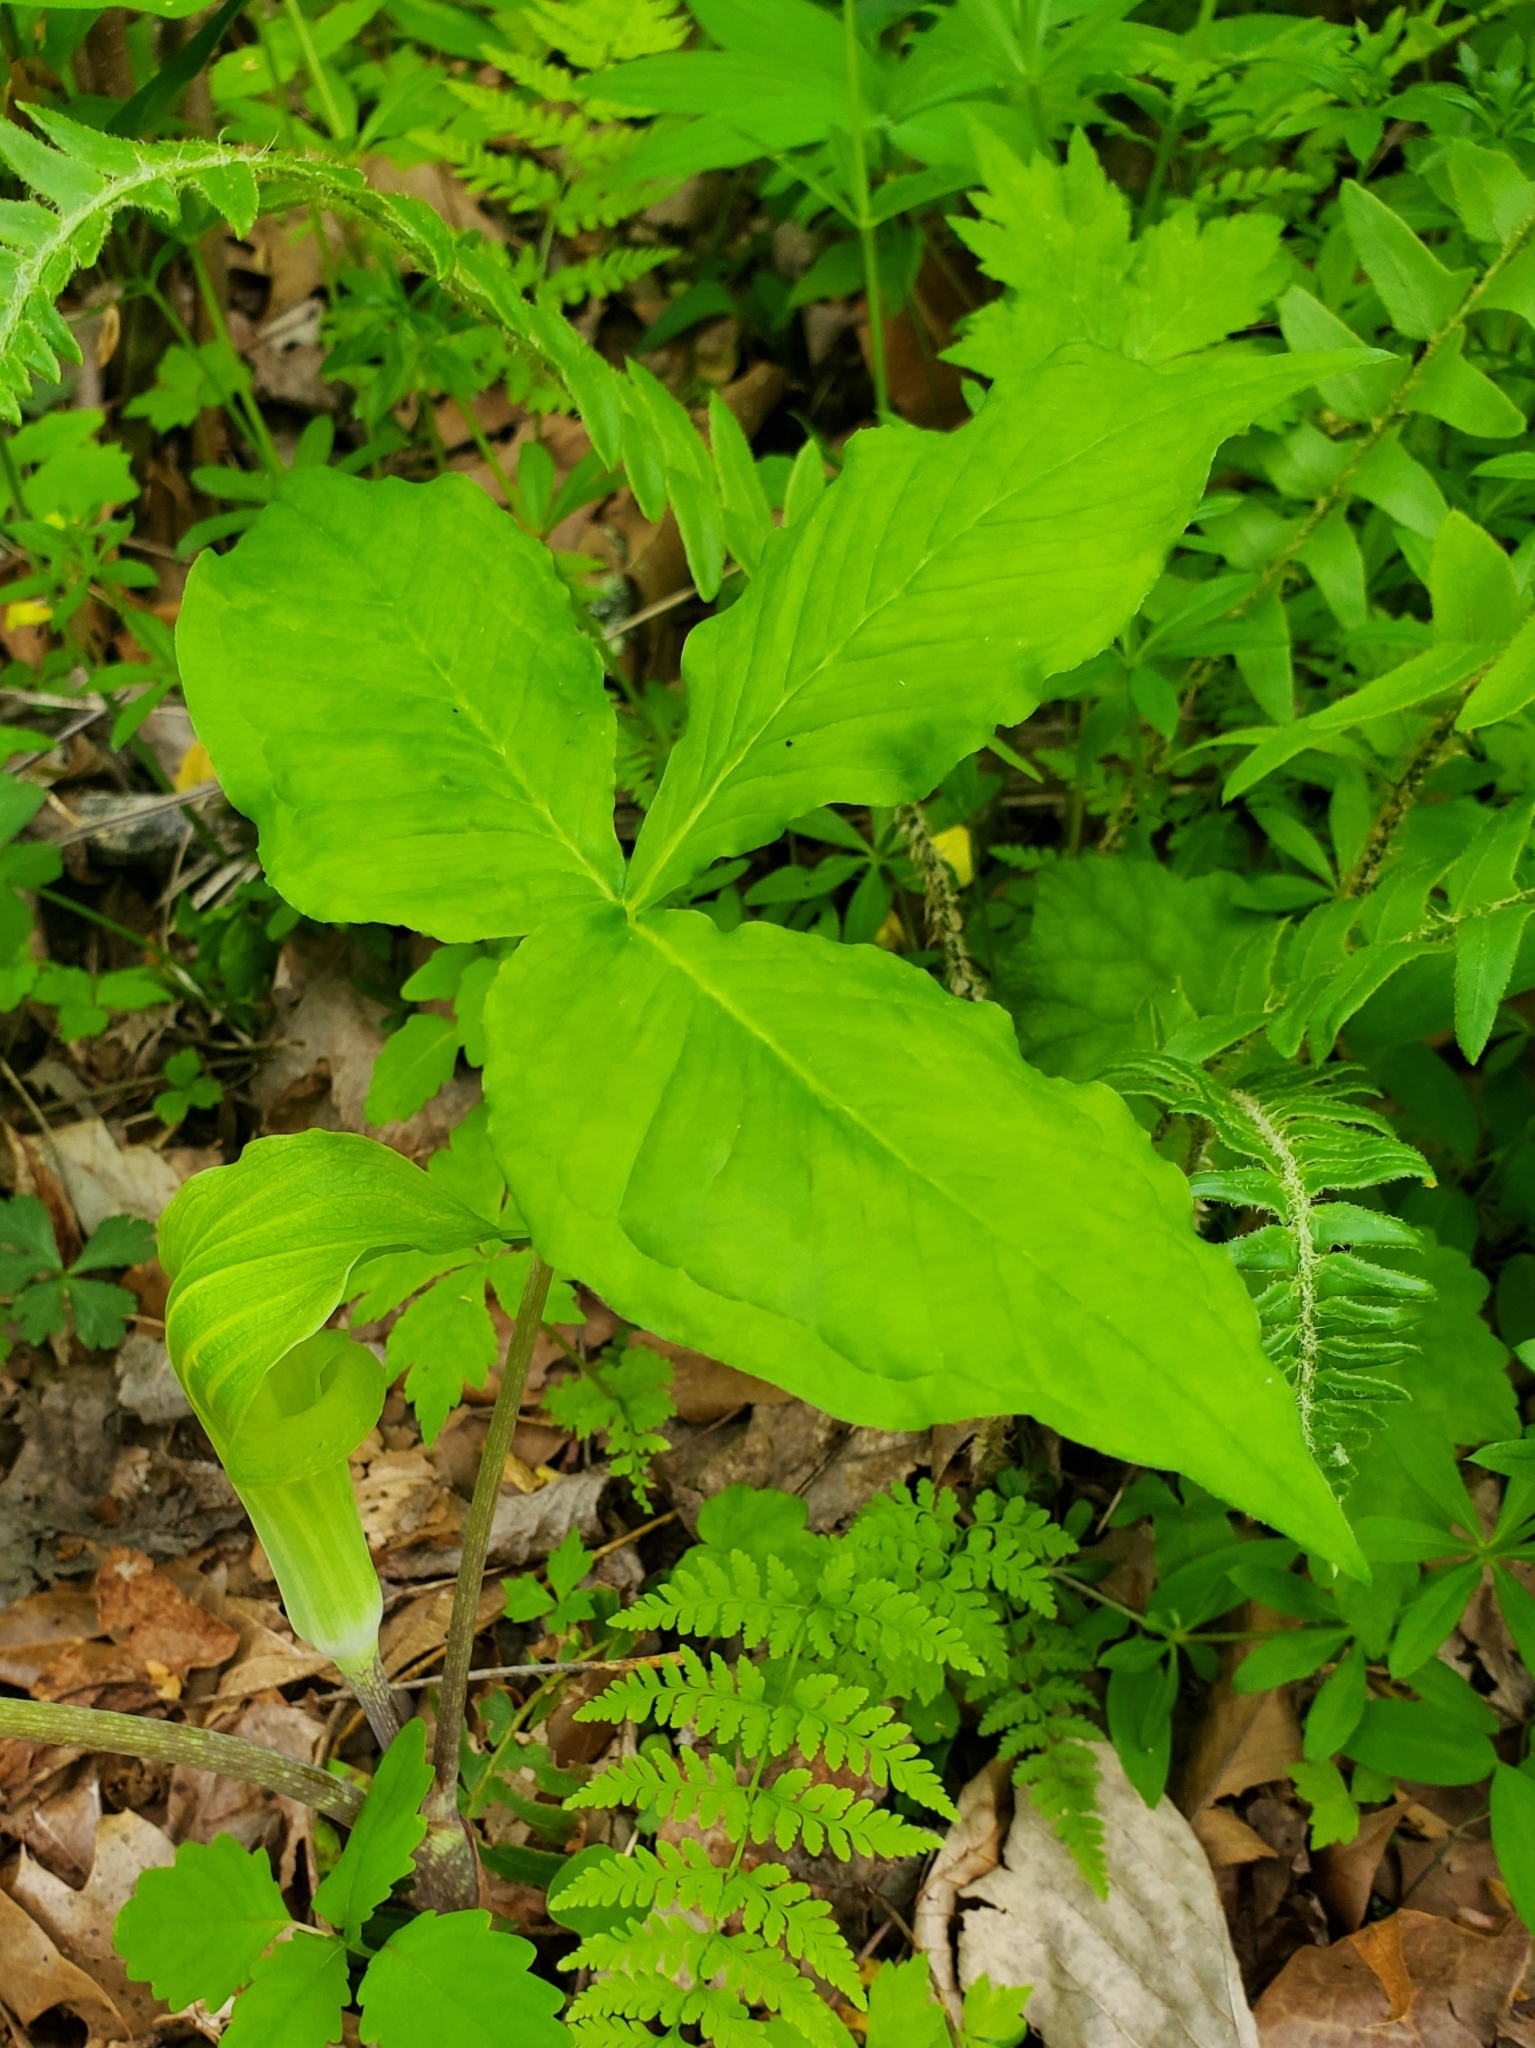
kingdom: Plantae
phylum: Tracheophyta
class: Liliopsida
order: Alismatales
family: Araceae
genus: Arisaema
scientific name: Arisaema triphyllum
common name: Jack-in-the-pulpit
